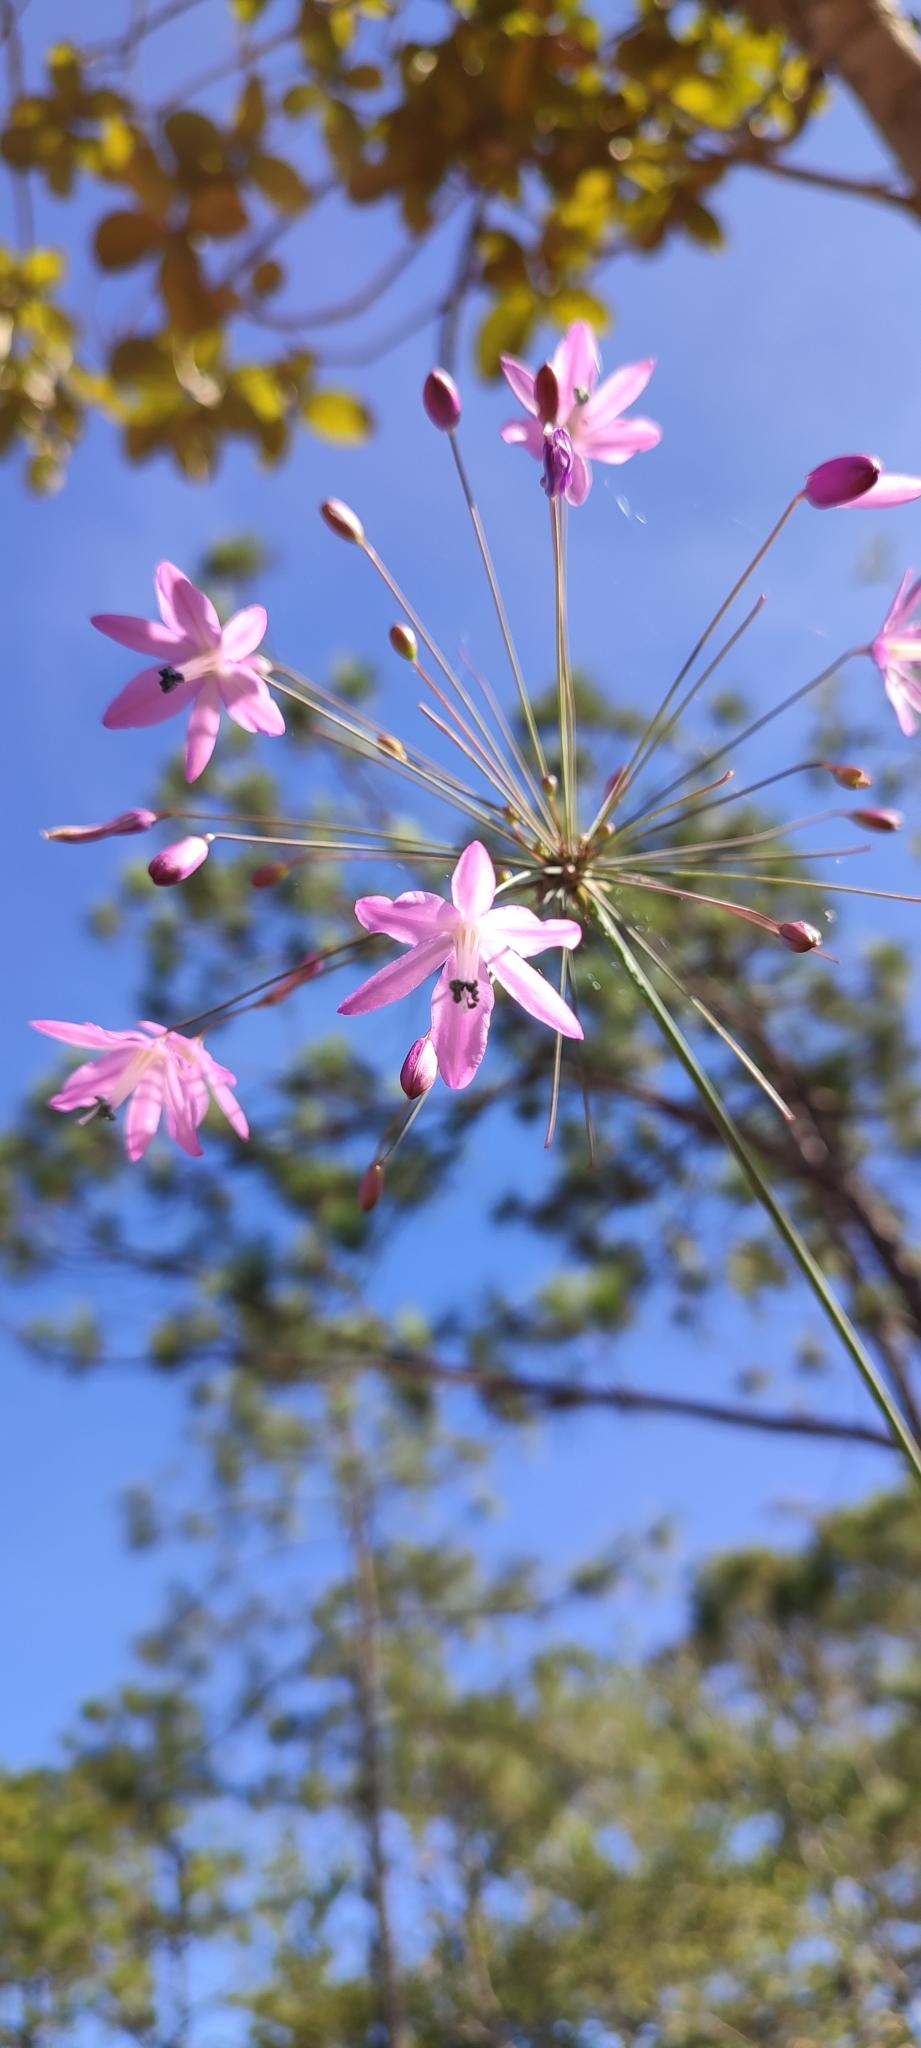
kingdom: Plantae
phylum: Tracheophyta
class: Liliopsida
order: Asparagales
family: Asparagaceae
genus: Bessera
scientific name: Bessera tuitensis
